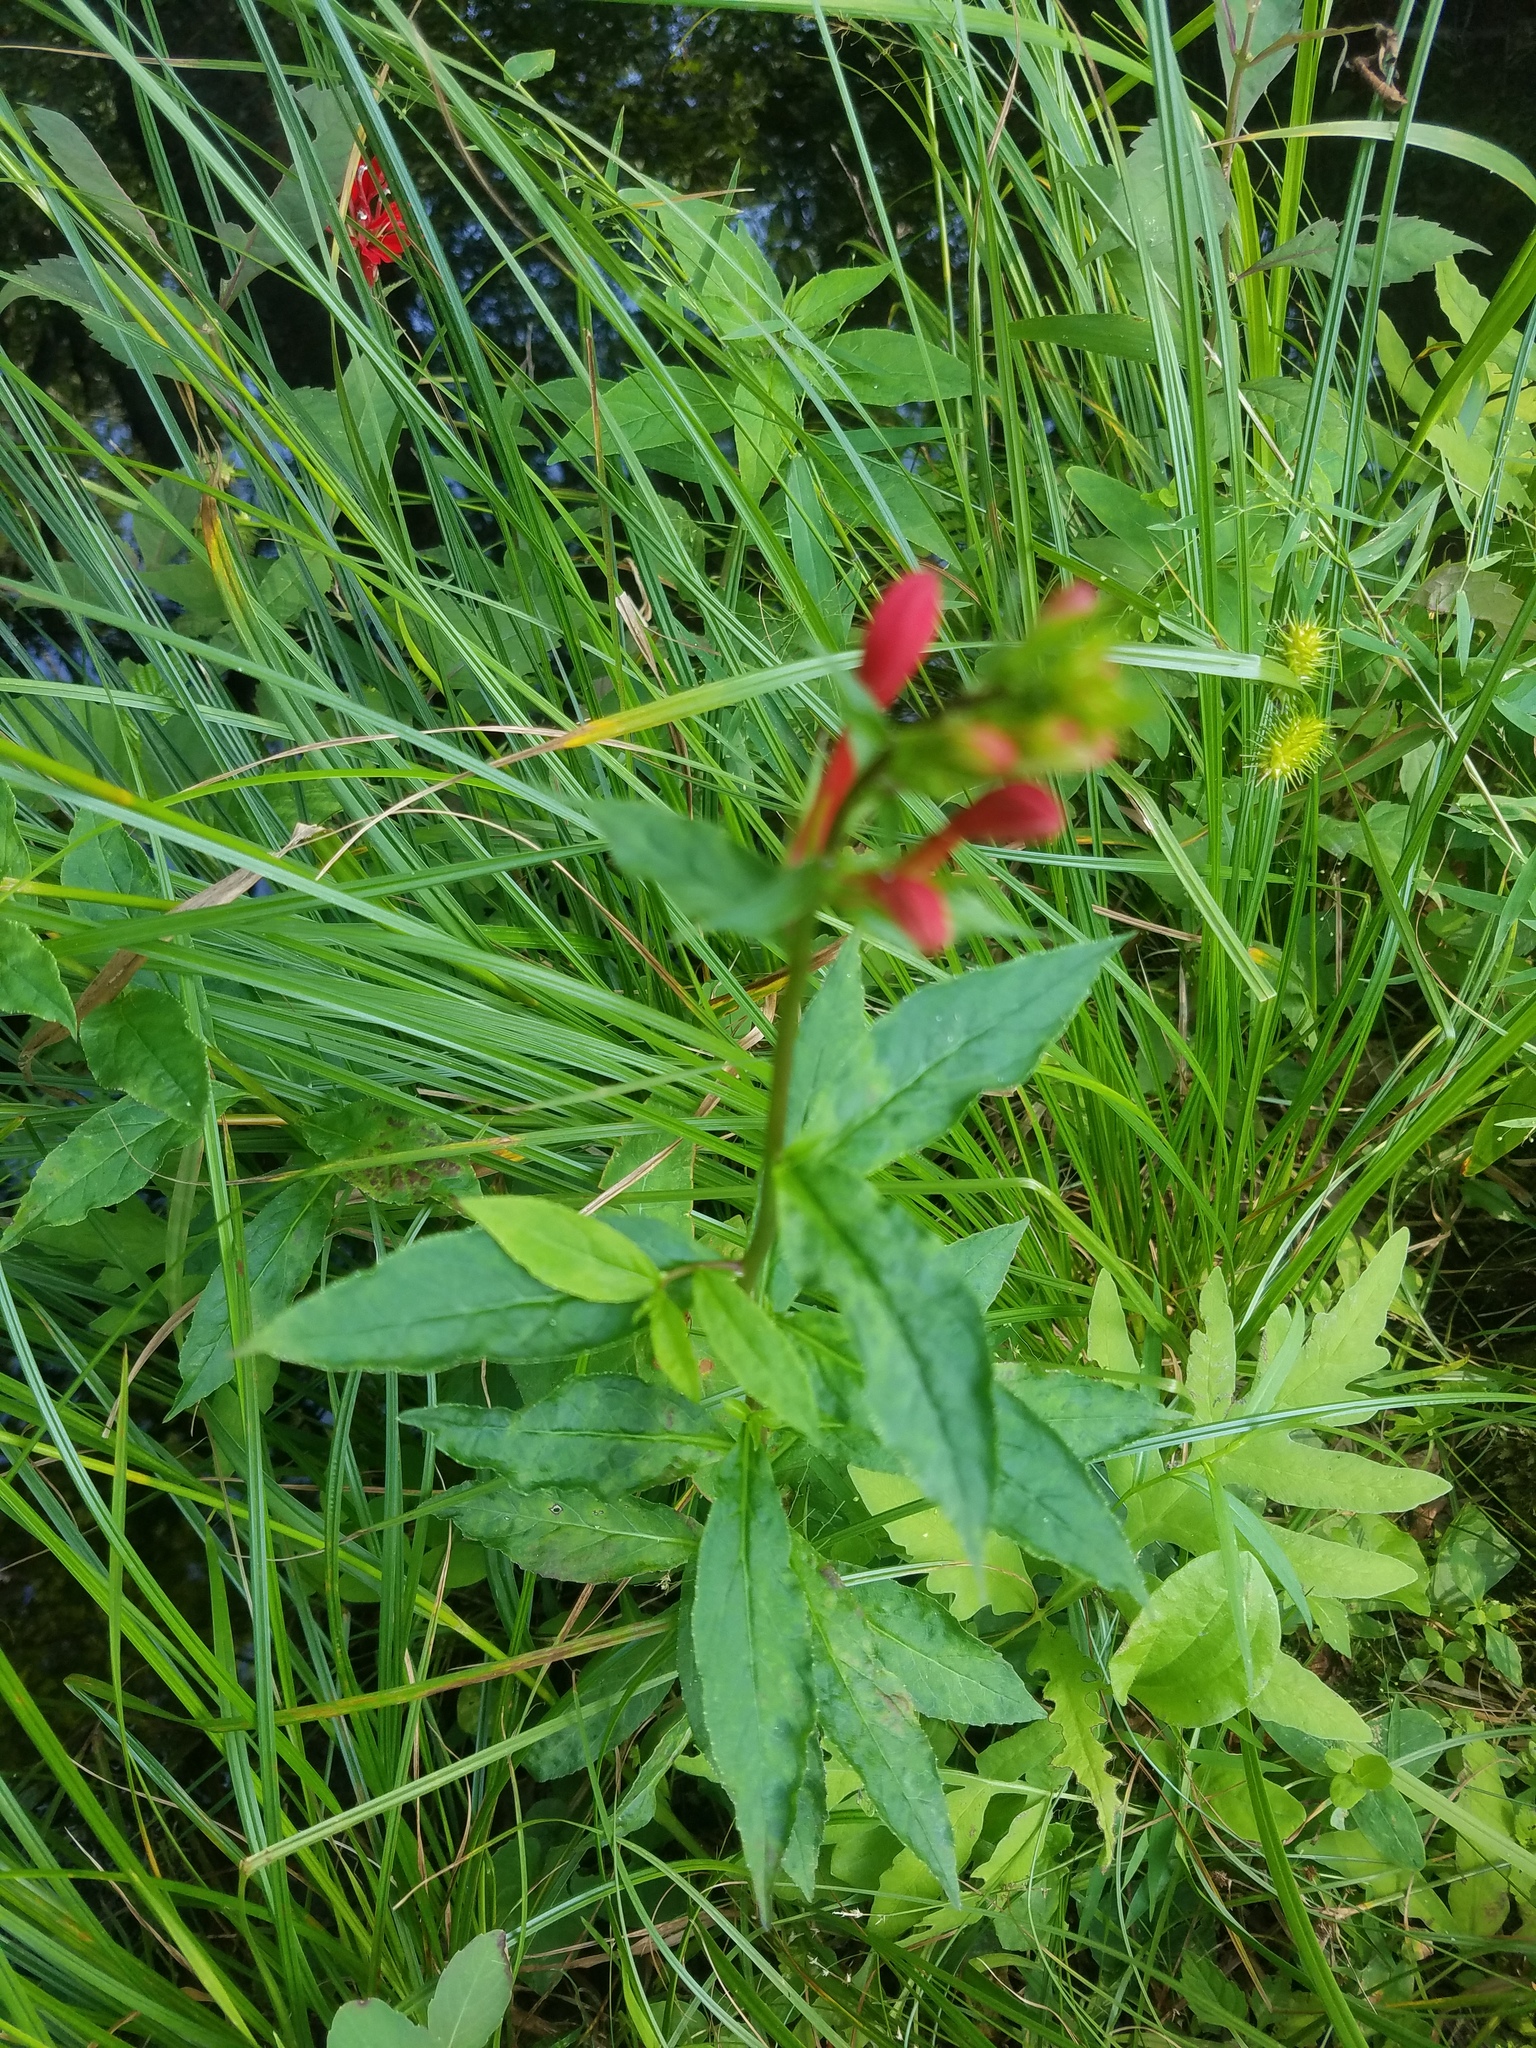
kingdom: Plantae
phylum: Tracheophyta
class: Magnoliopsida
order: Asterales
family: Campanulaceae
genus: Lobelia
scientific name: Lobelia cardinalis
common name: Cardinal flower
